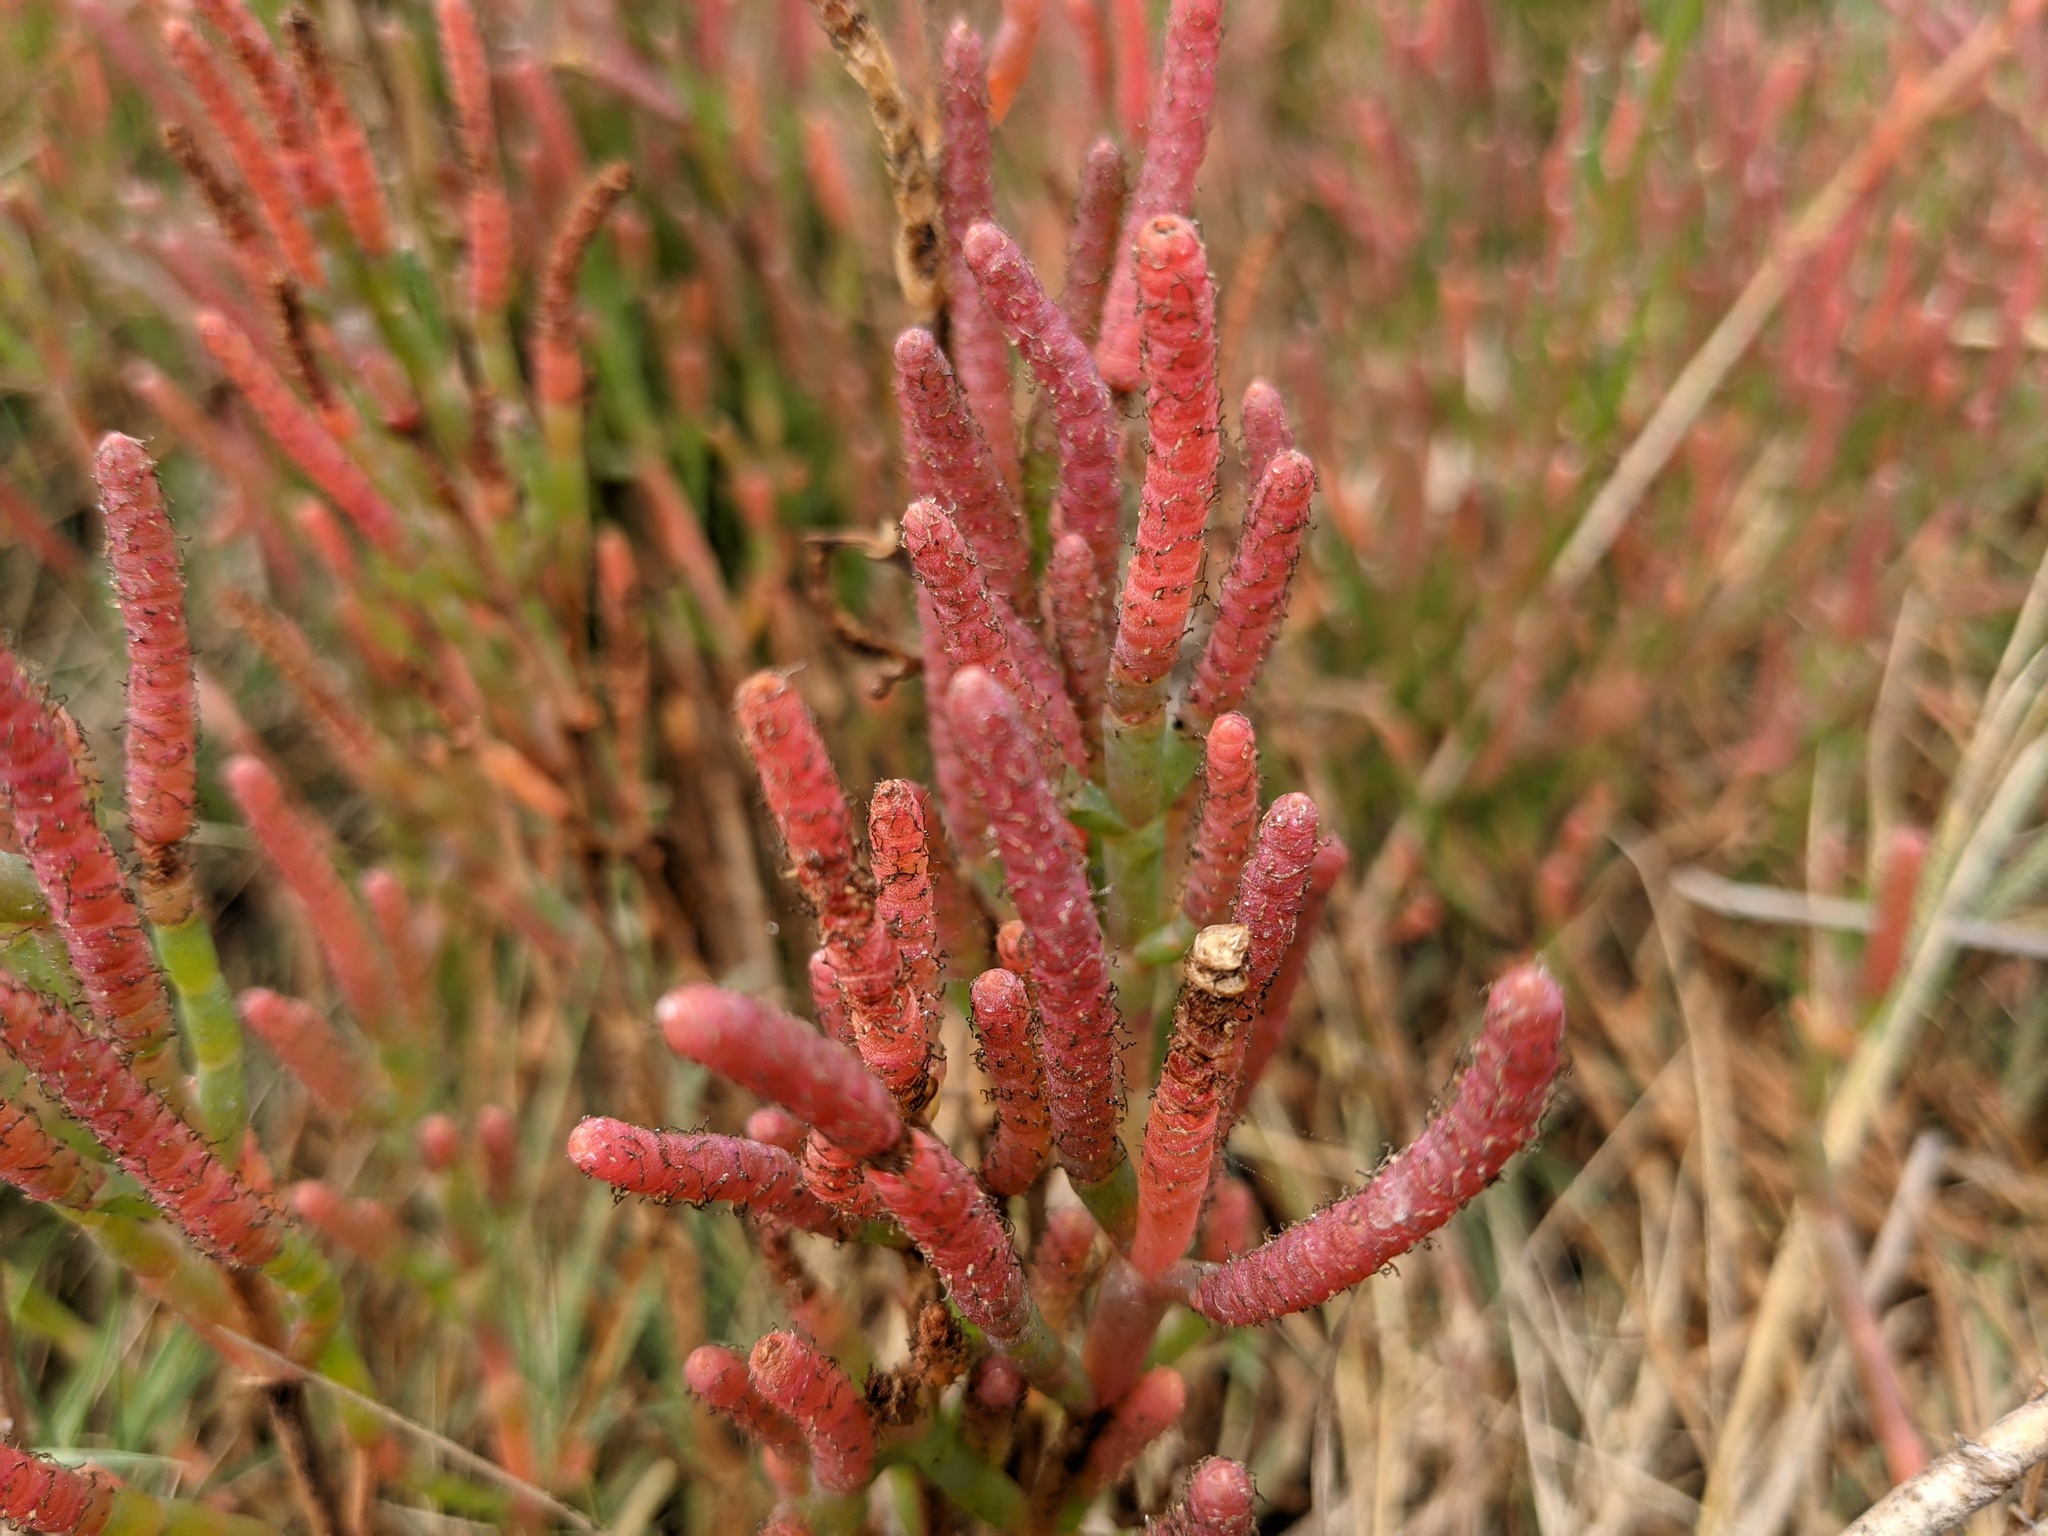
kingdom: Plantae
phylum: Tracheophyta
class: Magnoliopsida
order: Caryophyllales
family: Amaranthaceae
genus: Salicornia
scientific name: Salicornia pacifica
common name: Pacific glasswort
